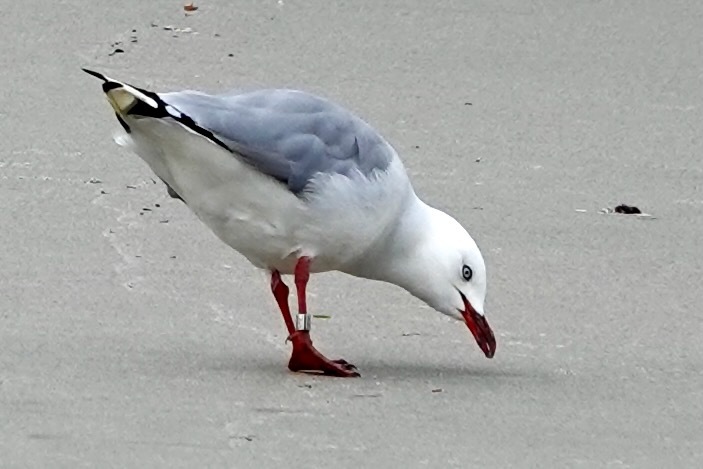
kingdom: Animalia
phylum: Chordata
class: Aves
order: Charadriiformes
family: Laridae
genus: Chroicocephalus
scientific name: Chroicocephalus novaehollandiae
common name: Silver gull
